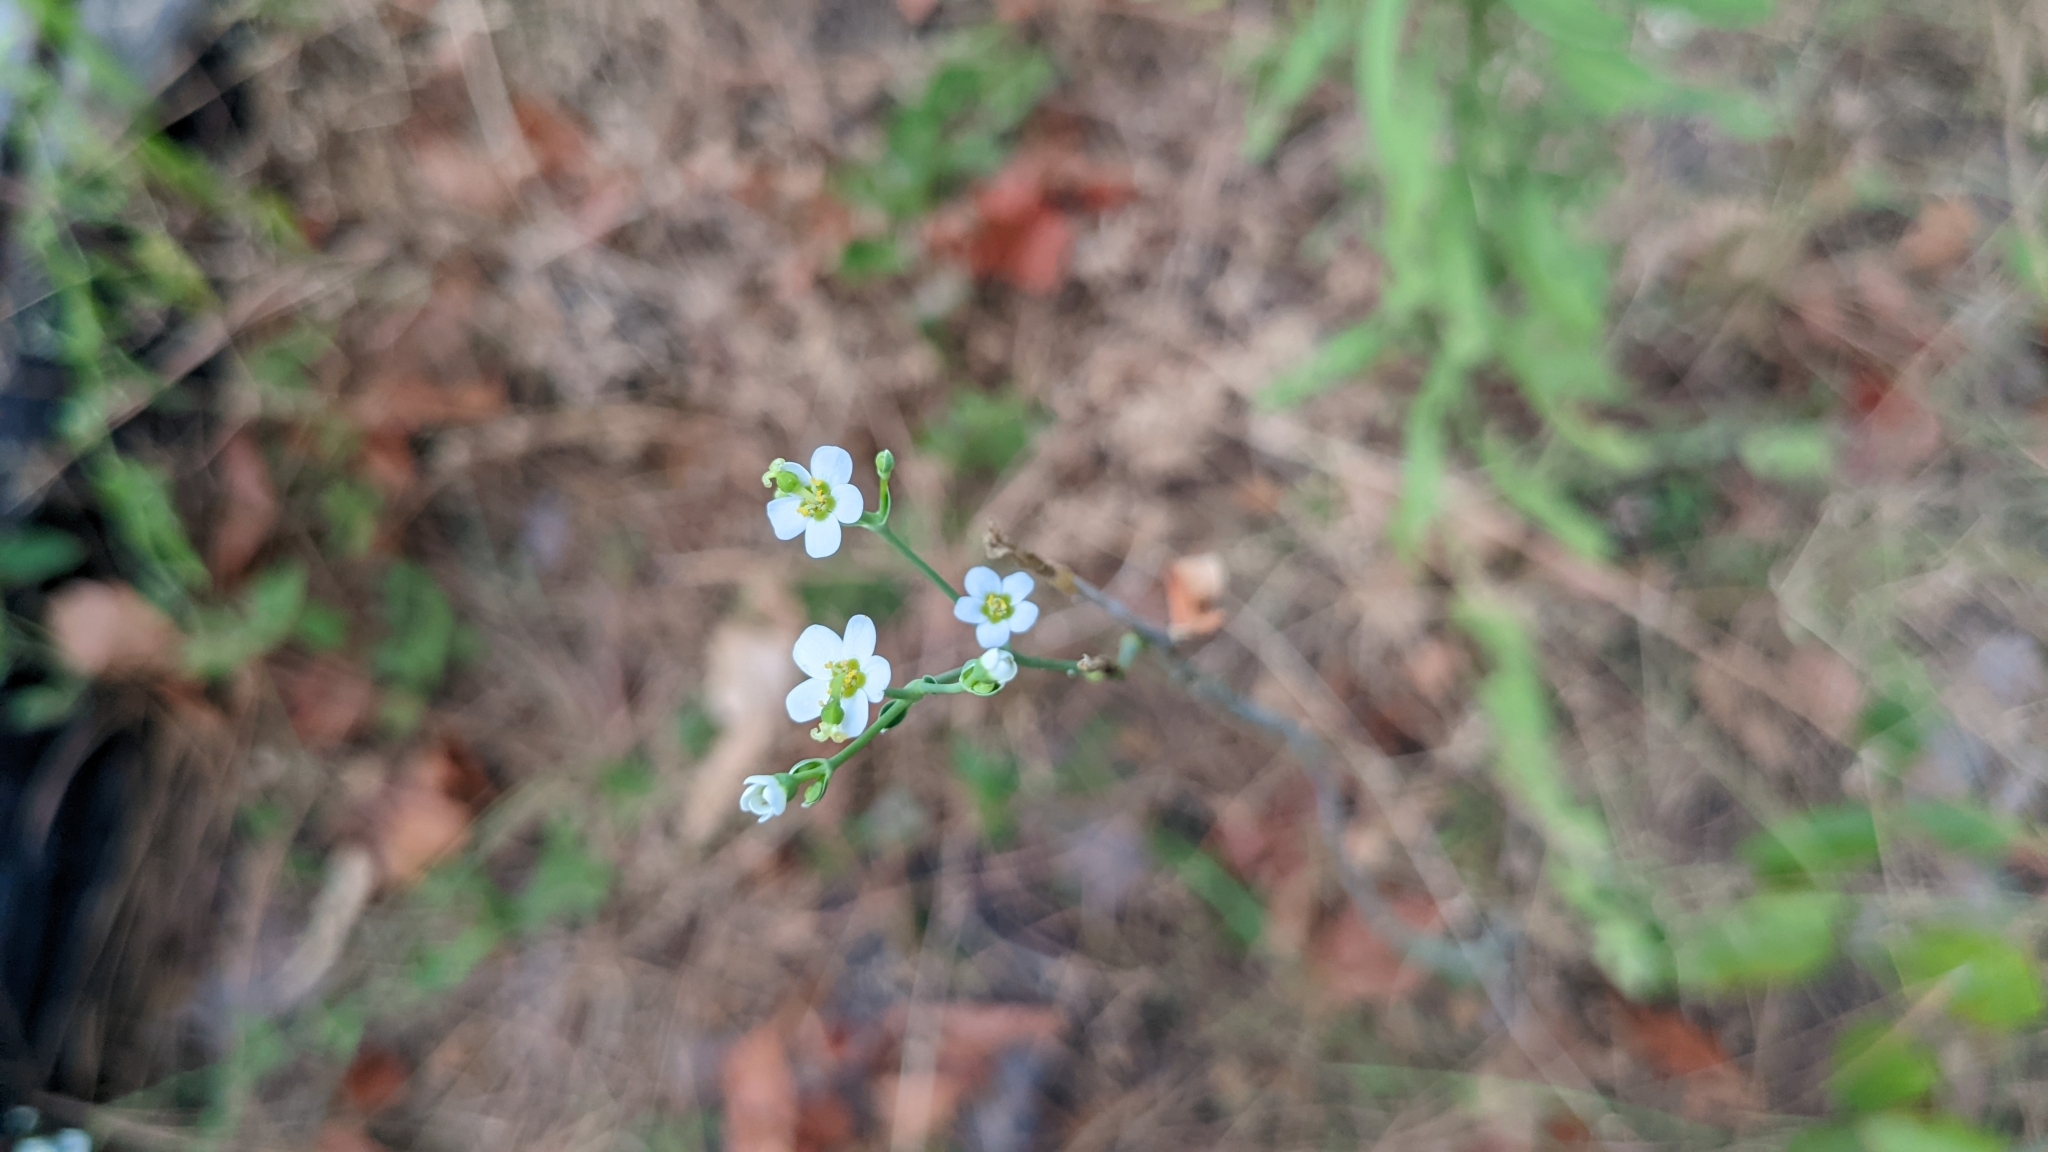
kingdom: Plantae
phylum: Tracheophyta
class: Magnoliopsida
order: Malpighiales
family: Euphorbiaceae
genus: Euphorbia
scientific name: Euphorbia corollata
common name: Flowering spurge
